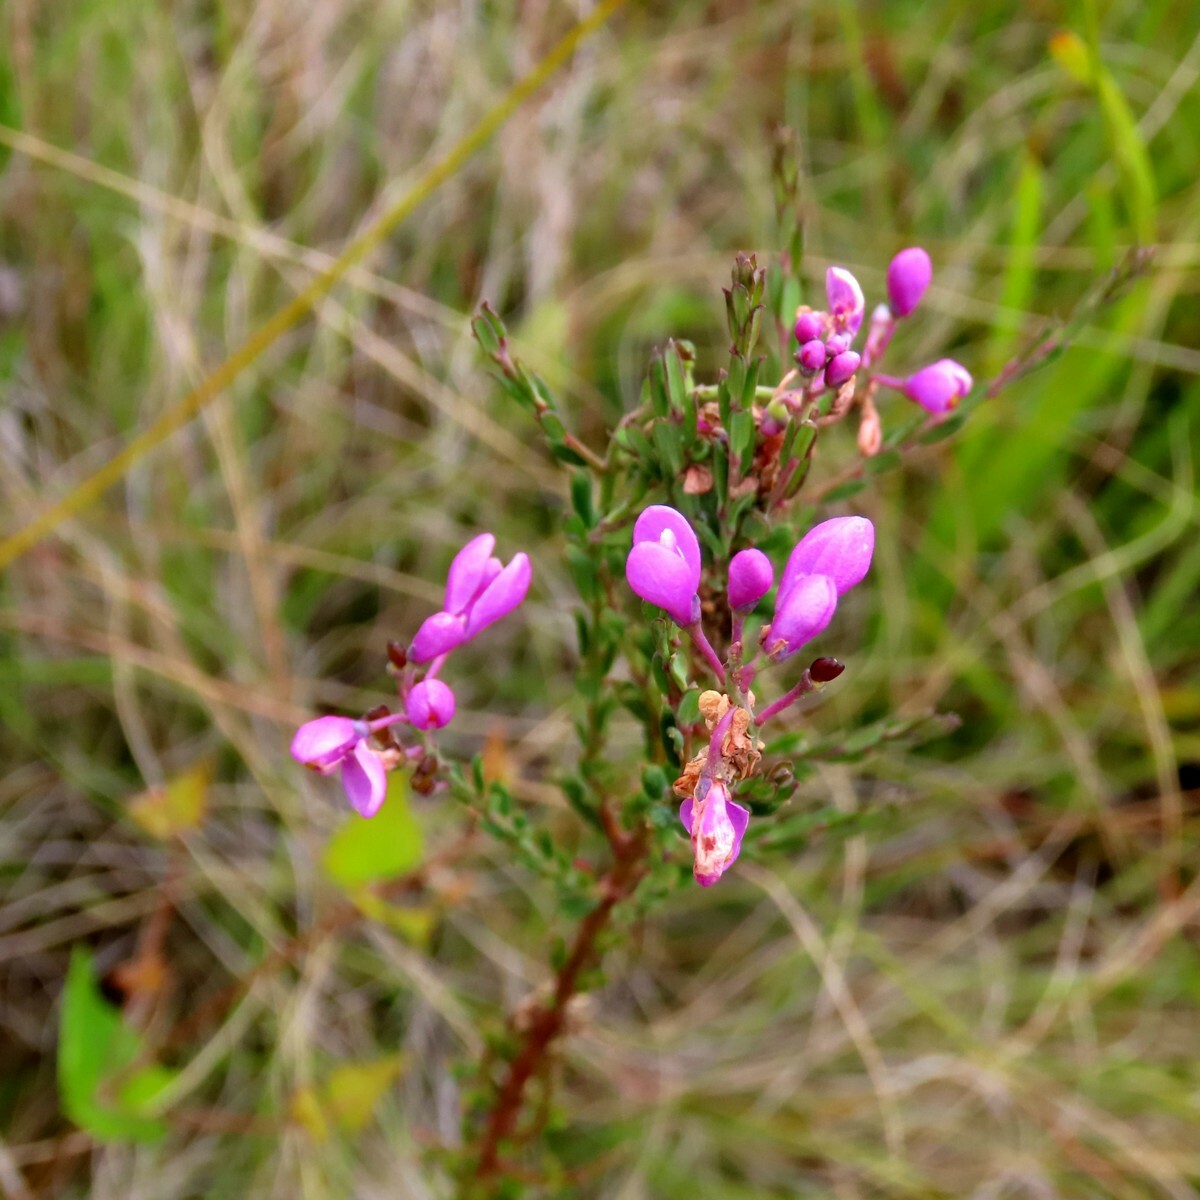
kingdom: Plantae
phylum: Tracheophyta
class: Magnoliopsida
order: Fabales
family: Polygalaceae
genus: Comesperma
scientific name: Comesperma ericinum
